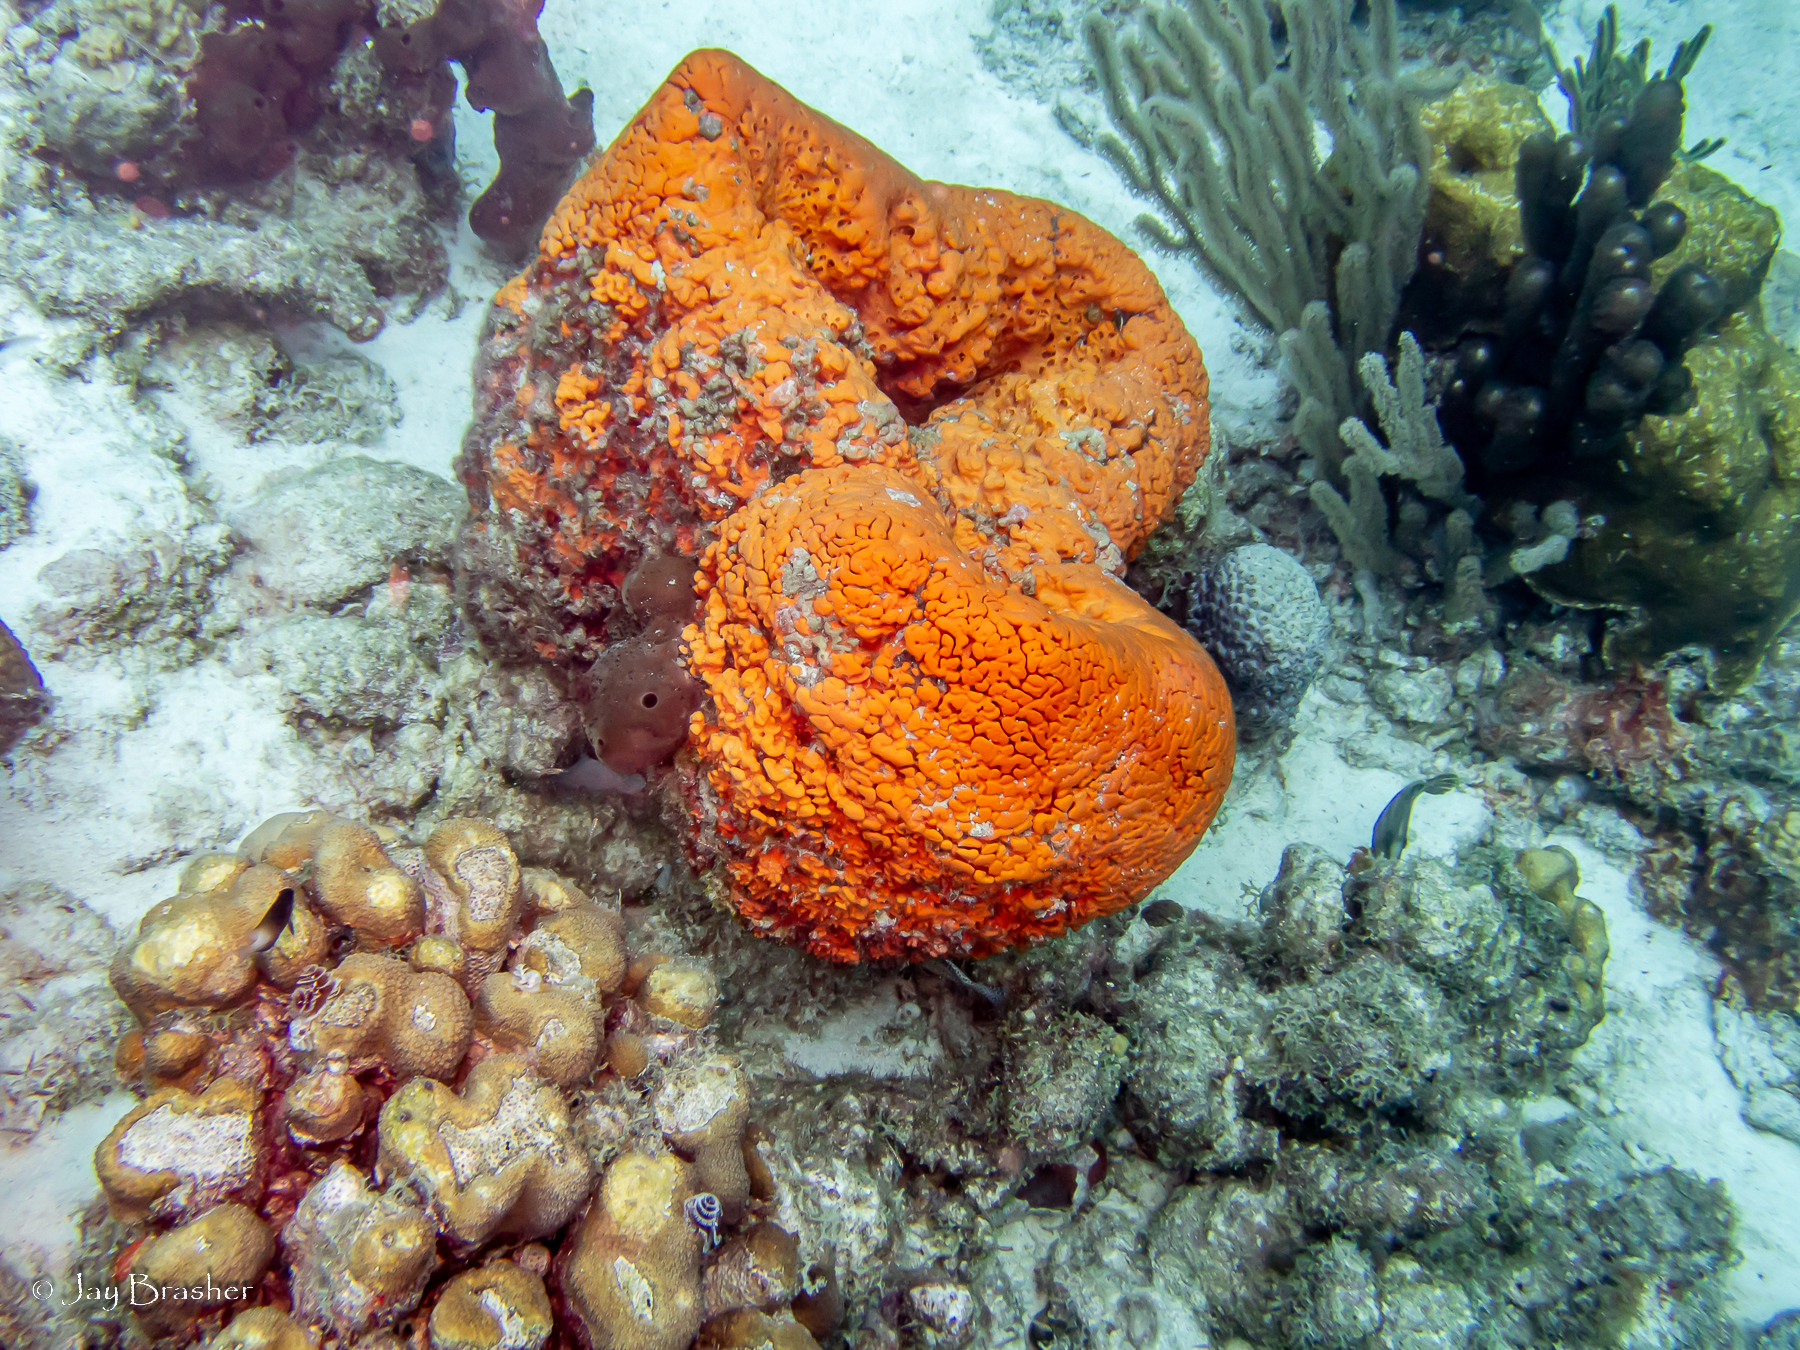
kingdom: Animalia
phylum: Cnidaria
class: Anthozoa
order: Scleractinia
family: Merulinidae
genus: Orbicella
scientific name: Orbicella annularis
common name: Boulder star coral
